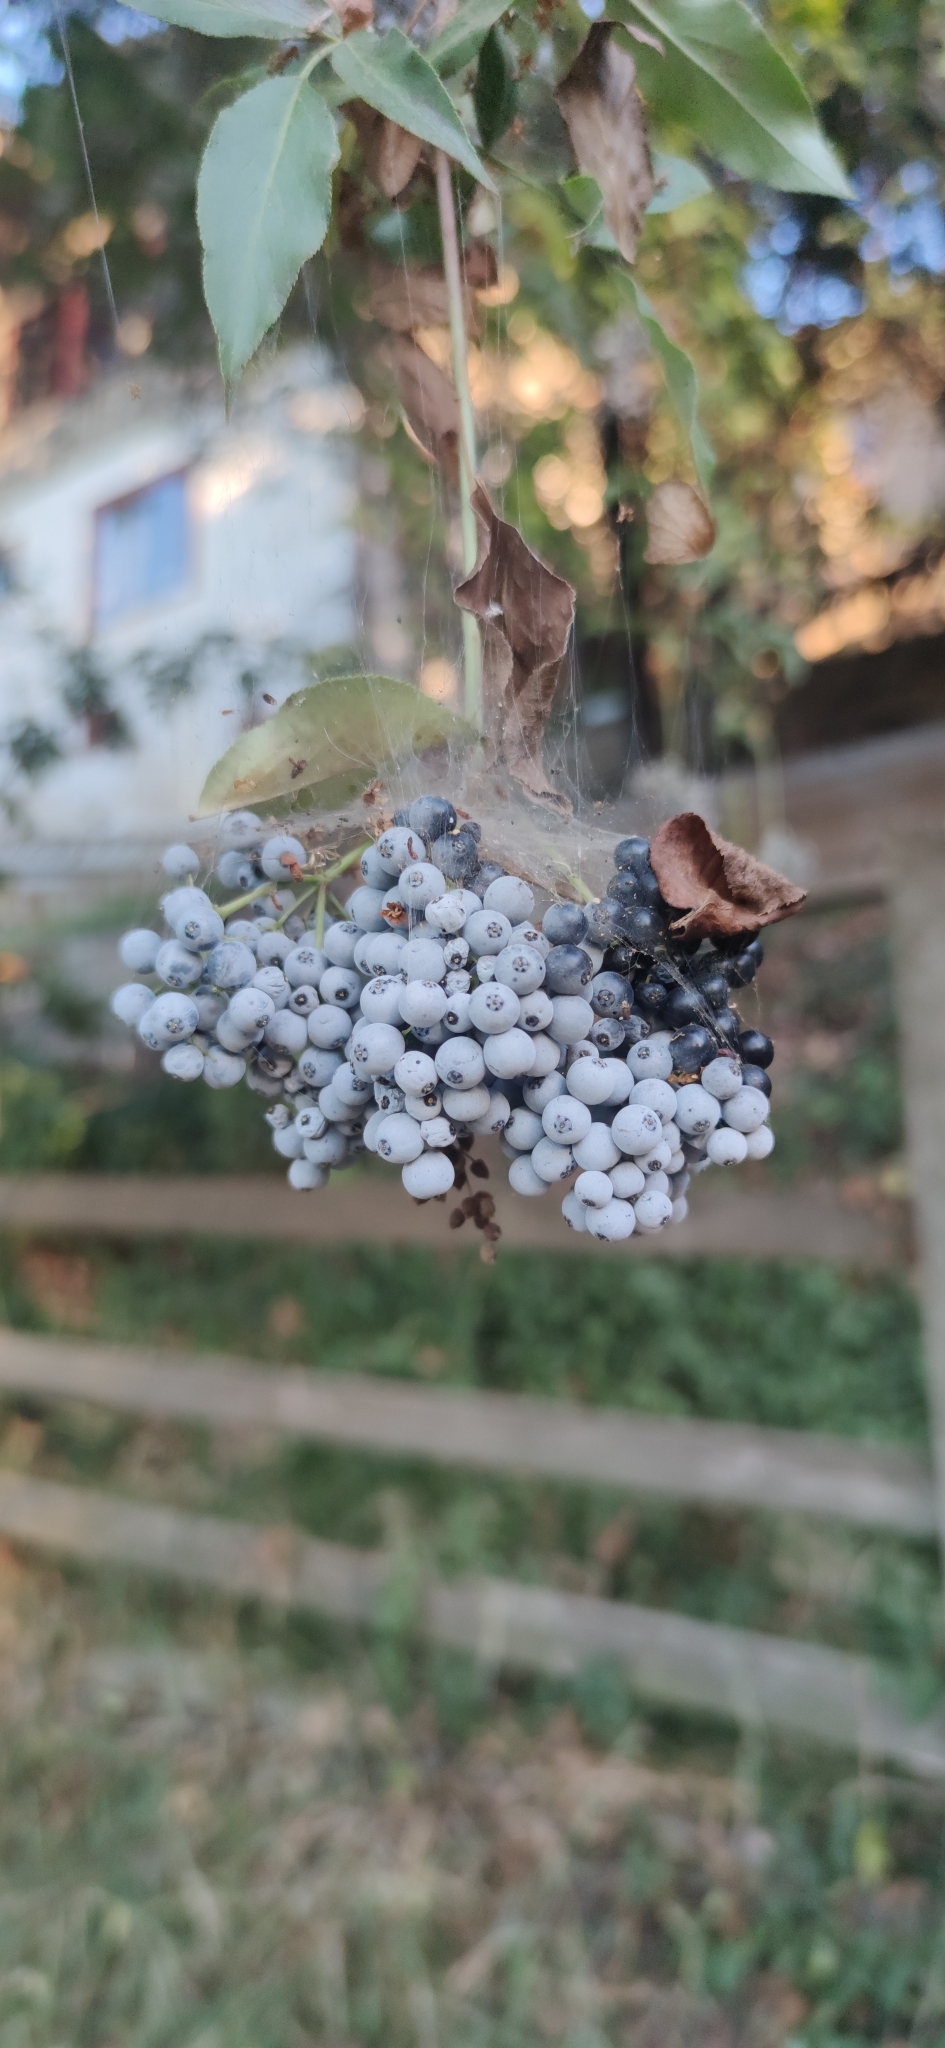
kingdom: Plantae
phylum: Tracheophyta
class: Magnoliopsida
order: Dipsacales
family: Viburnaceae
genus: Sambucus
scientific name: Sambucus cerulea
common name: Blue elder
